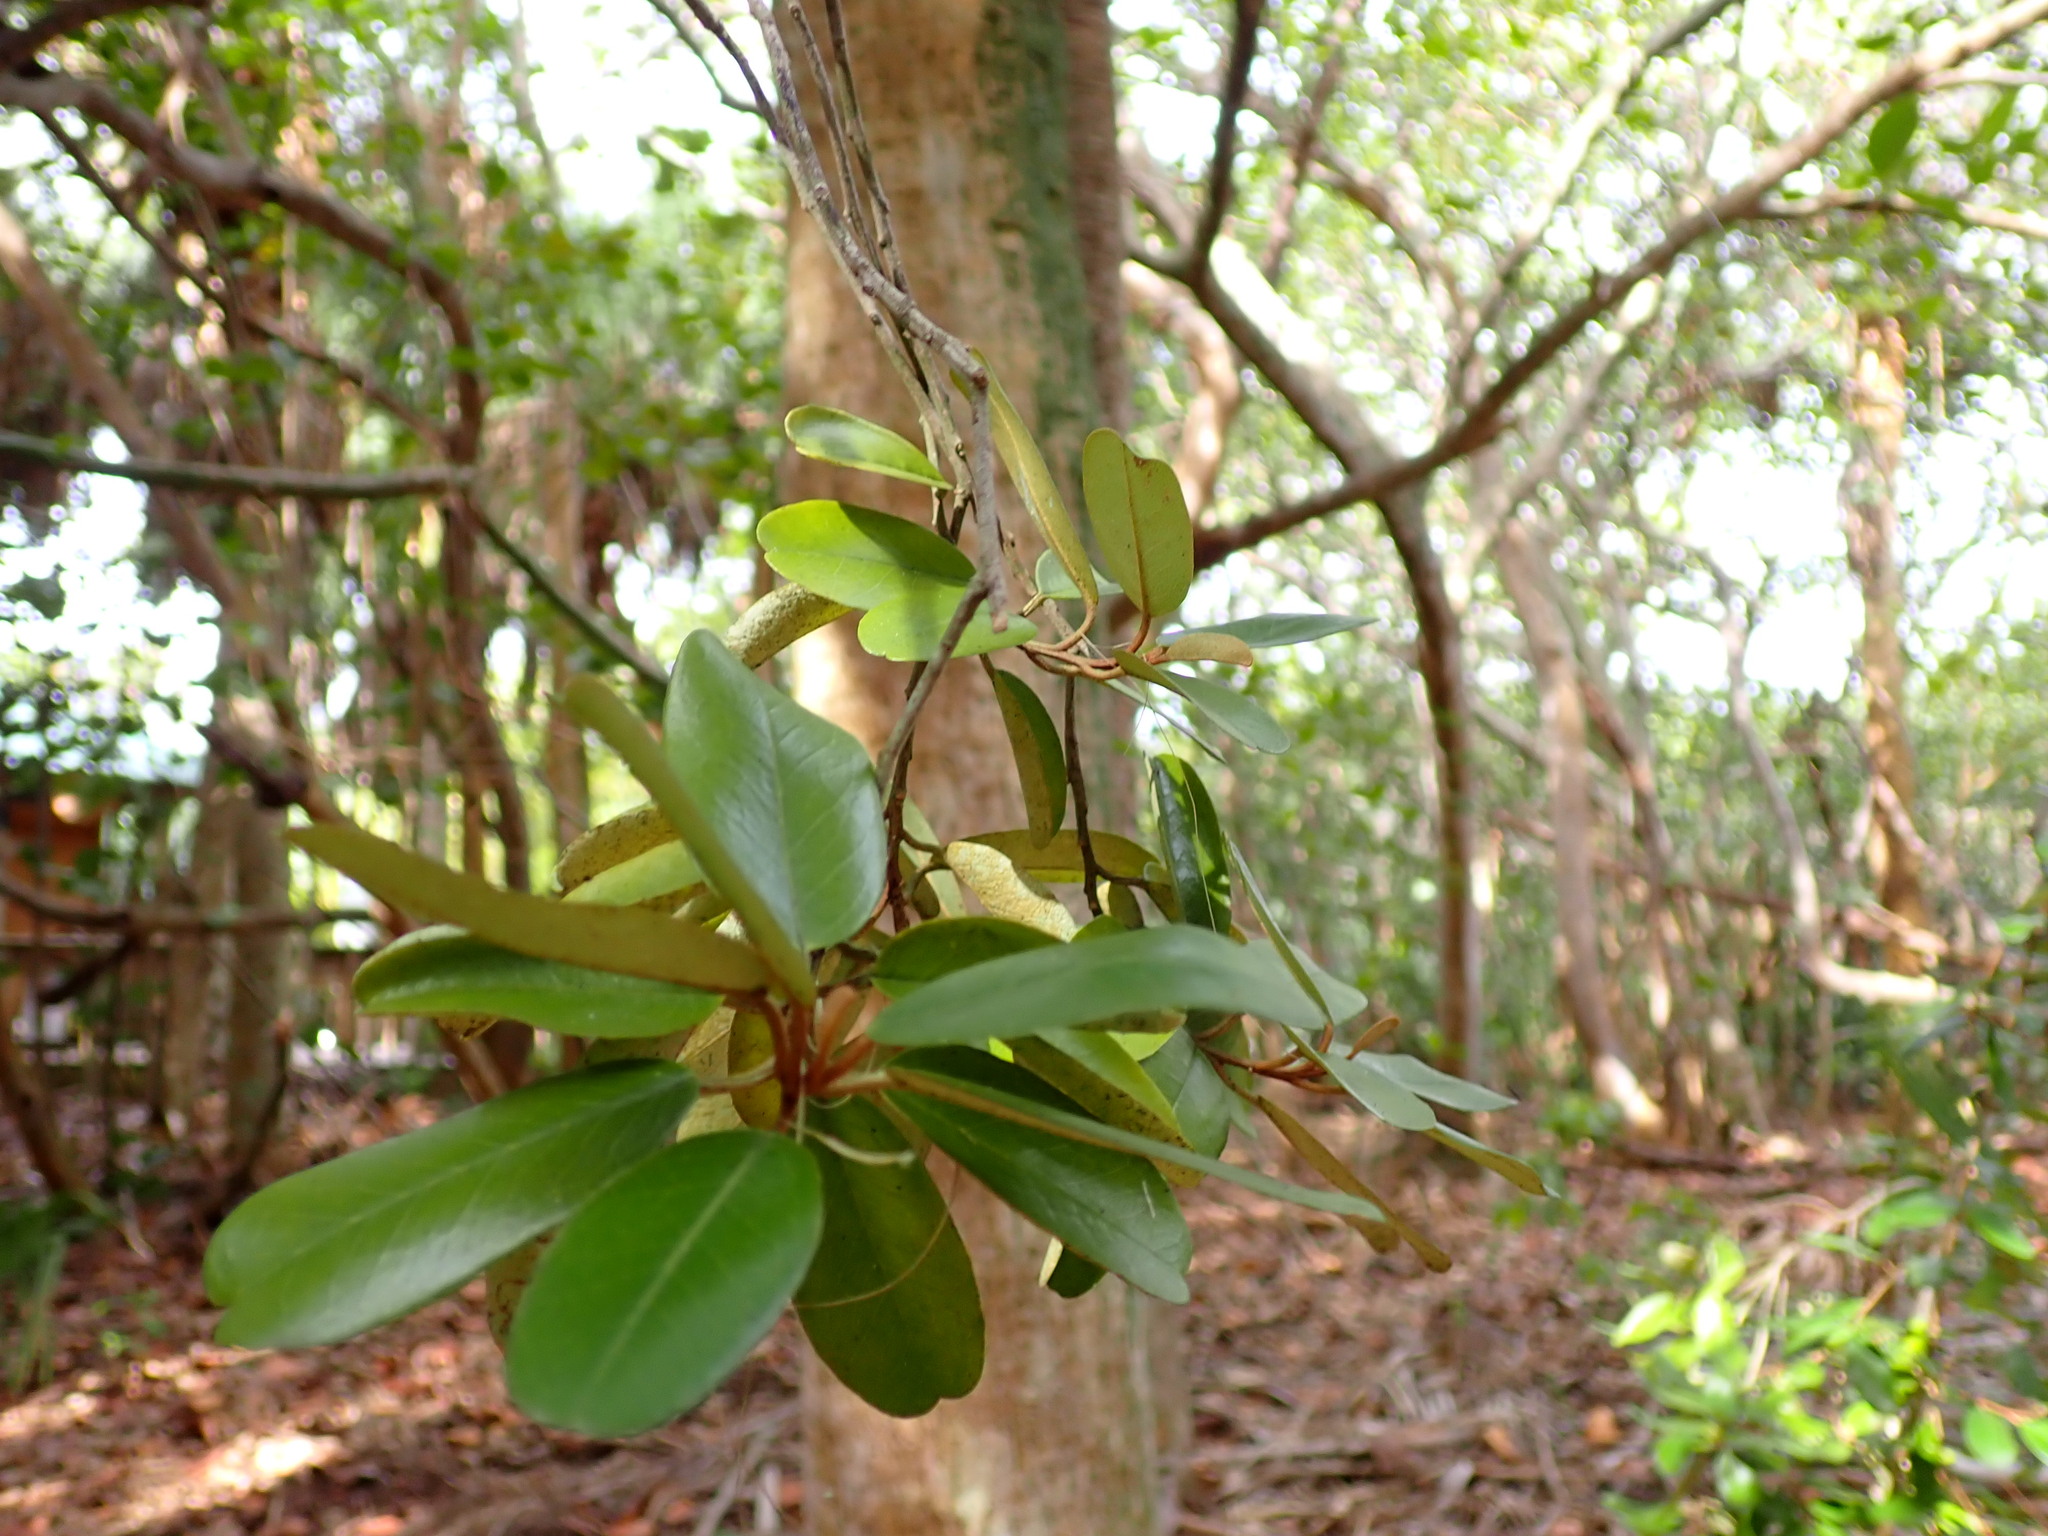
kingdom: Plantae
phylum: Tracheophyta
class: Magnoliopsida
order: Brassicales
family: Capparaceae
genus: Quadrella
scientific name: Quadrella cynophallophora
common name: Black willow
